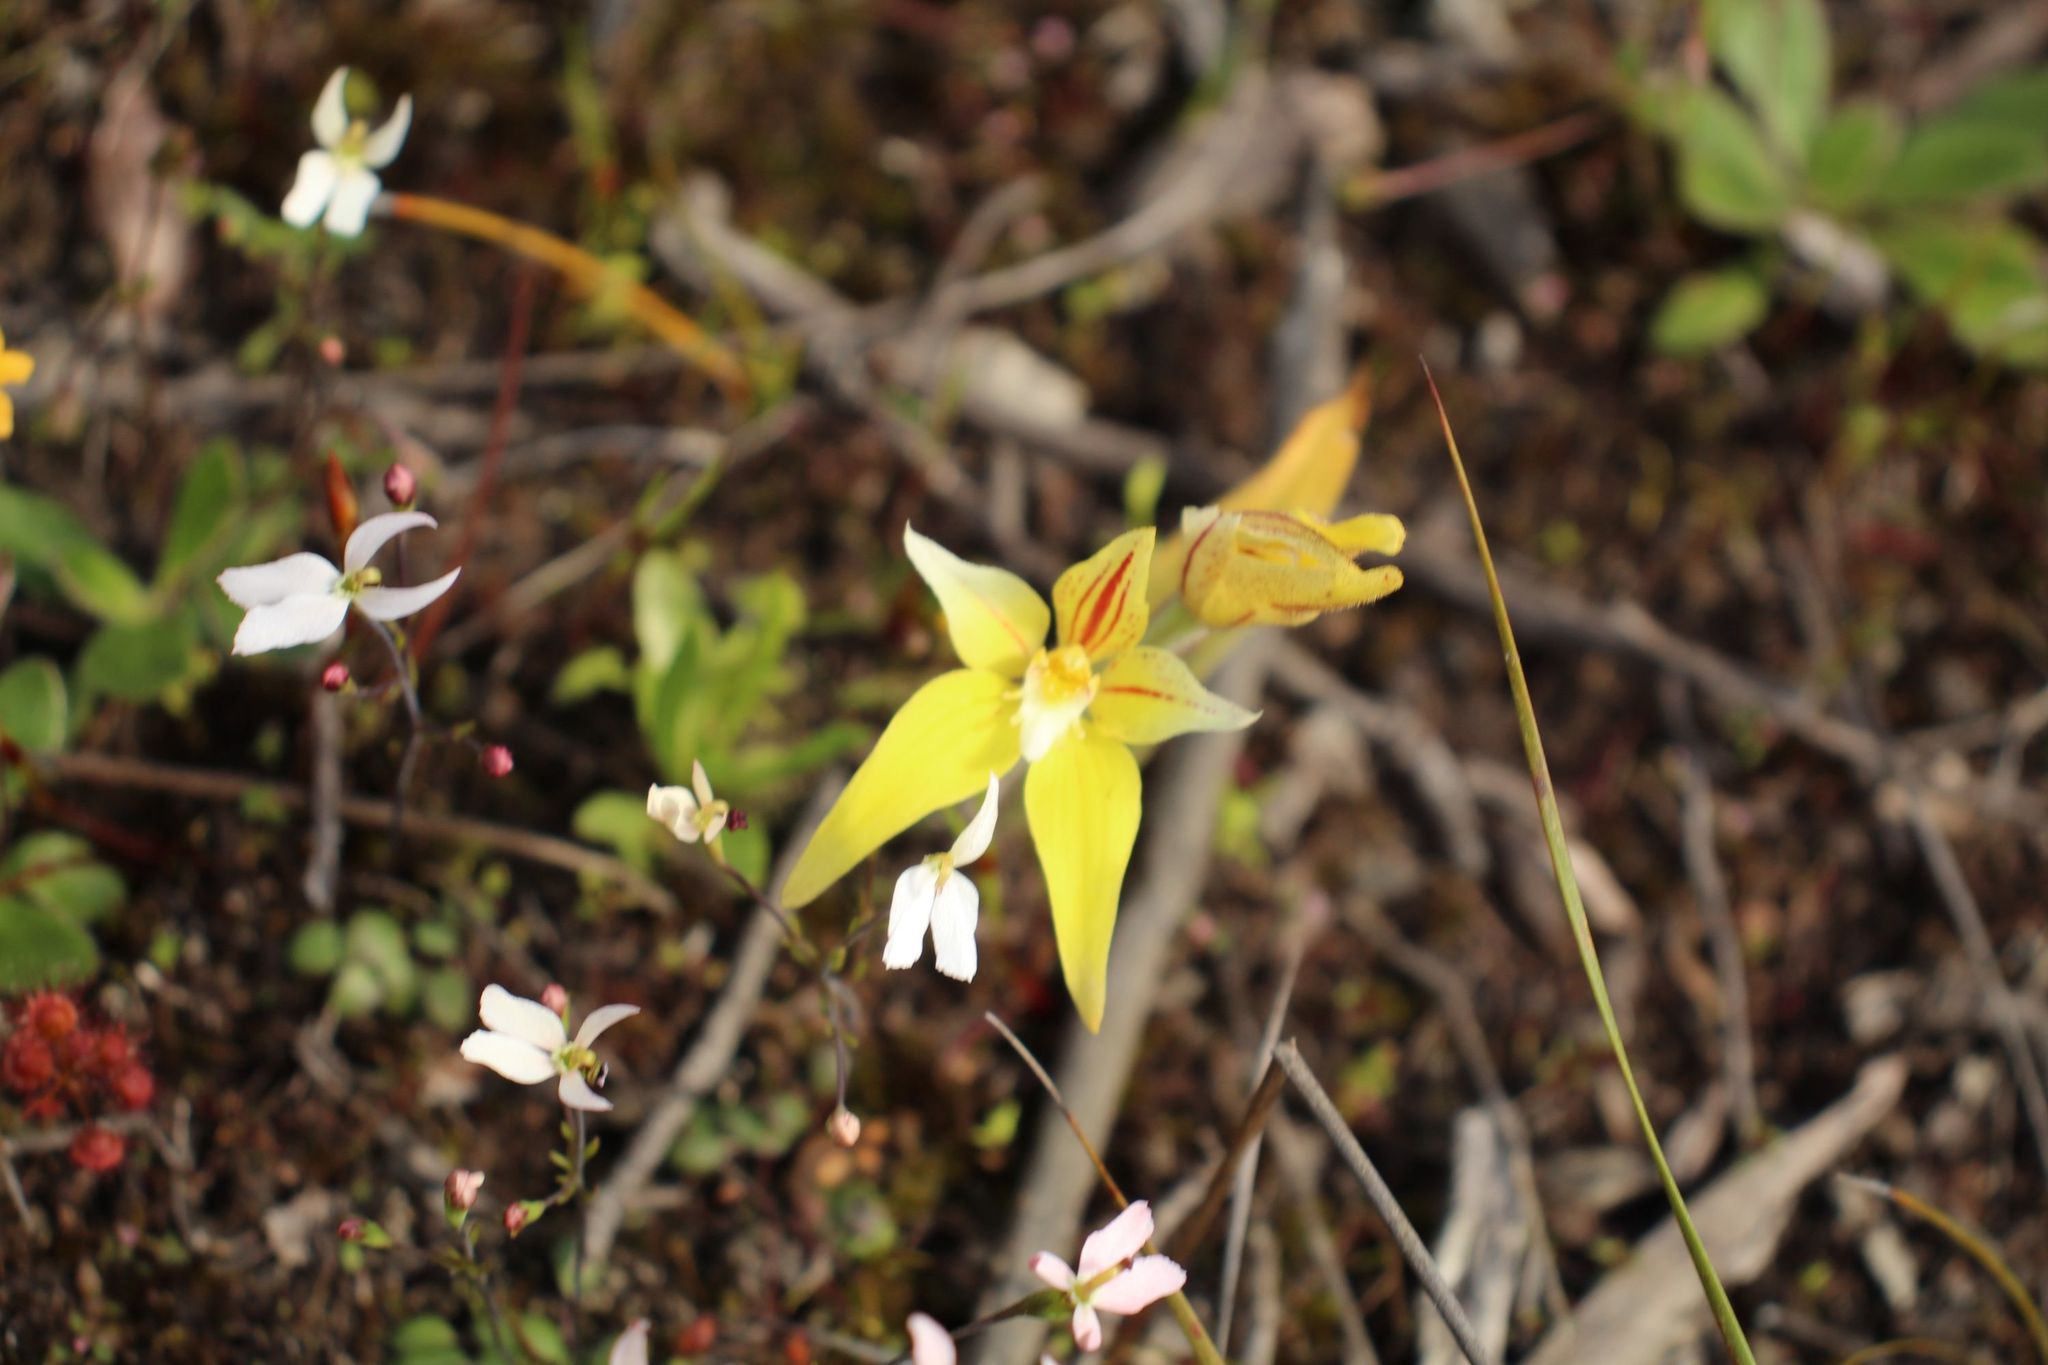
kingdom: Plantae
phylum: Tracheophyta
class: Liliopsida
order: Asparagales
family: Orchidaceae
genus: Caladenia
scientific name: Caladenia flava
